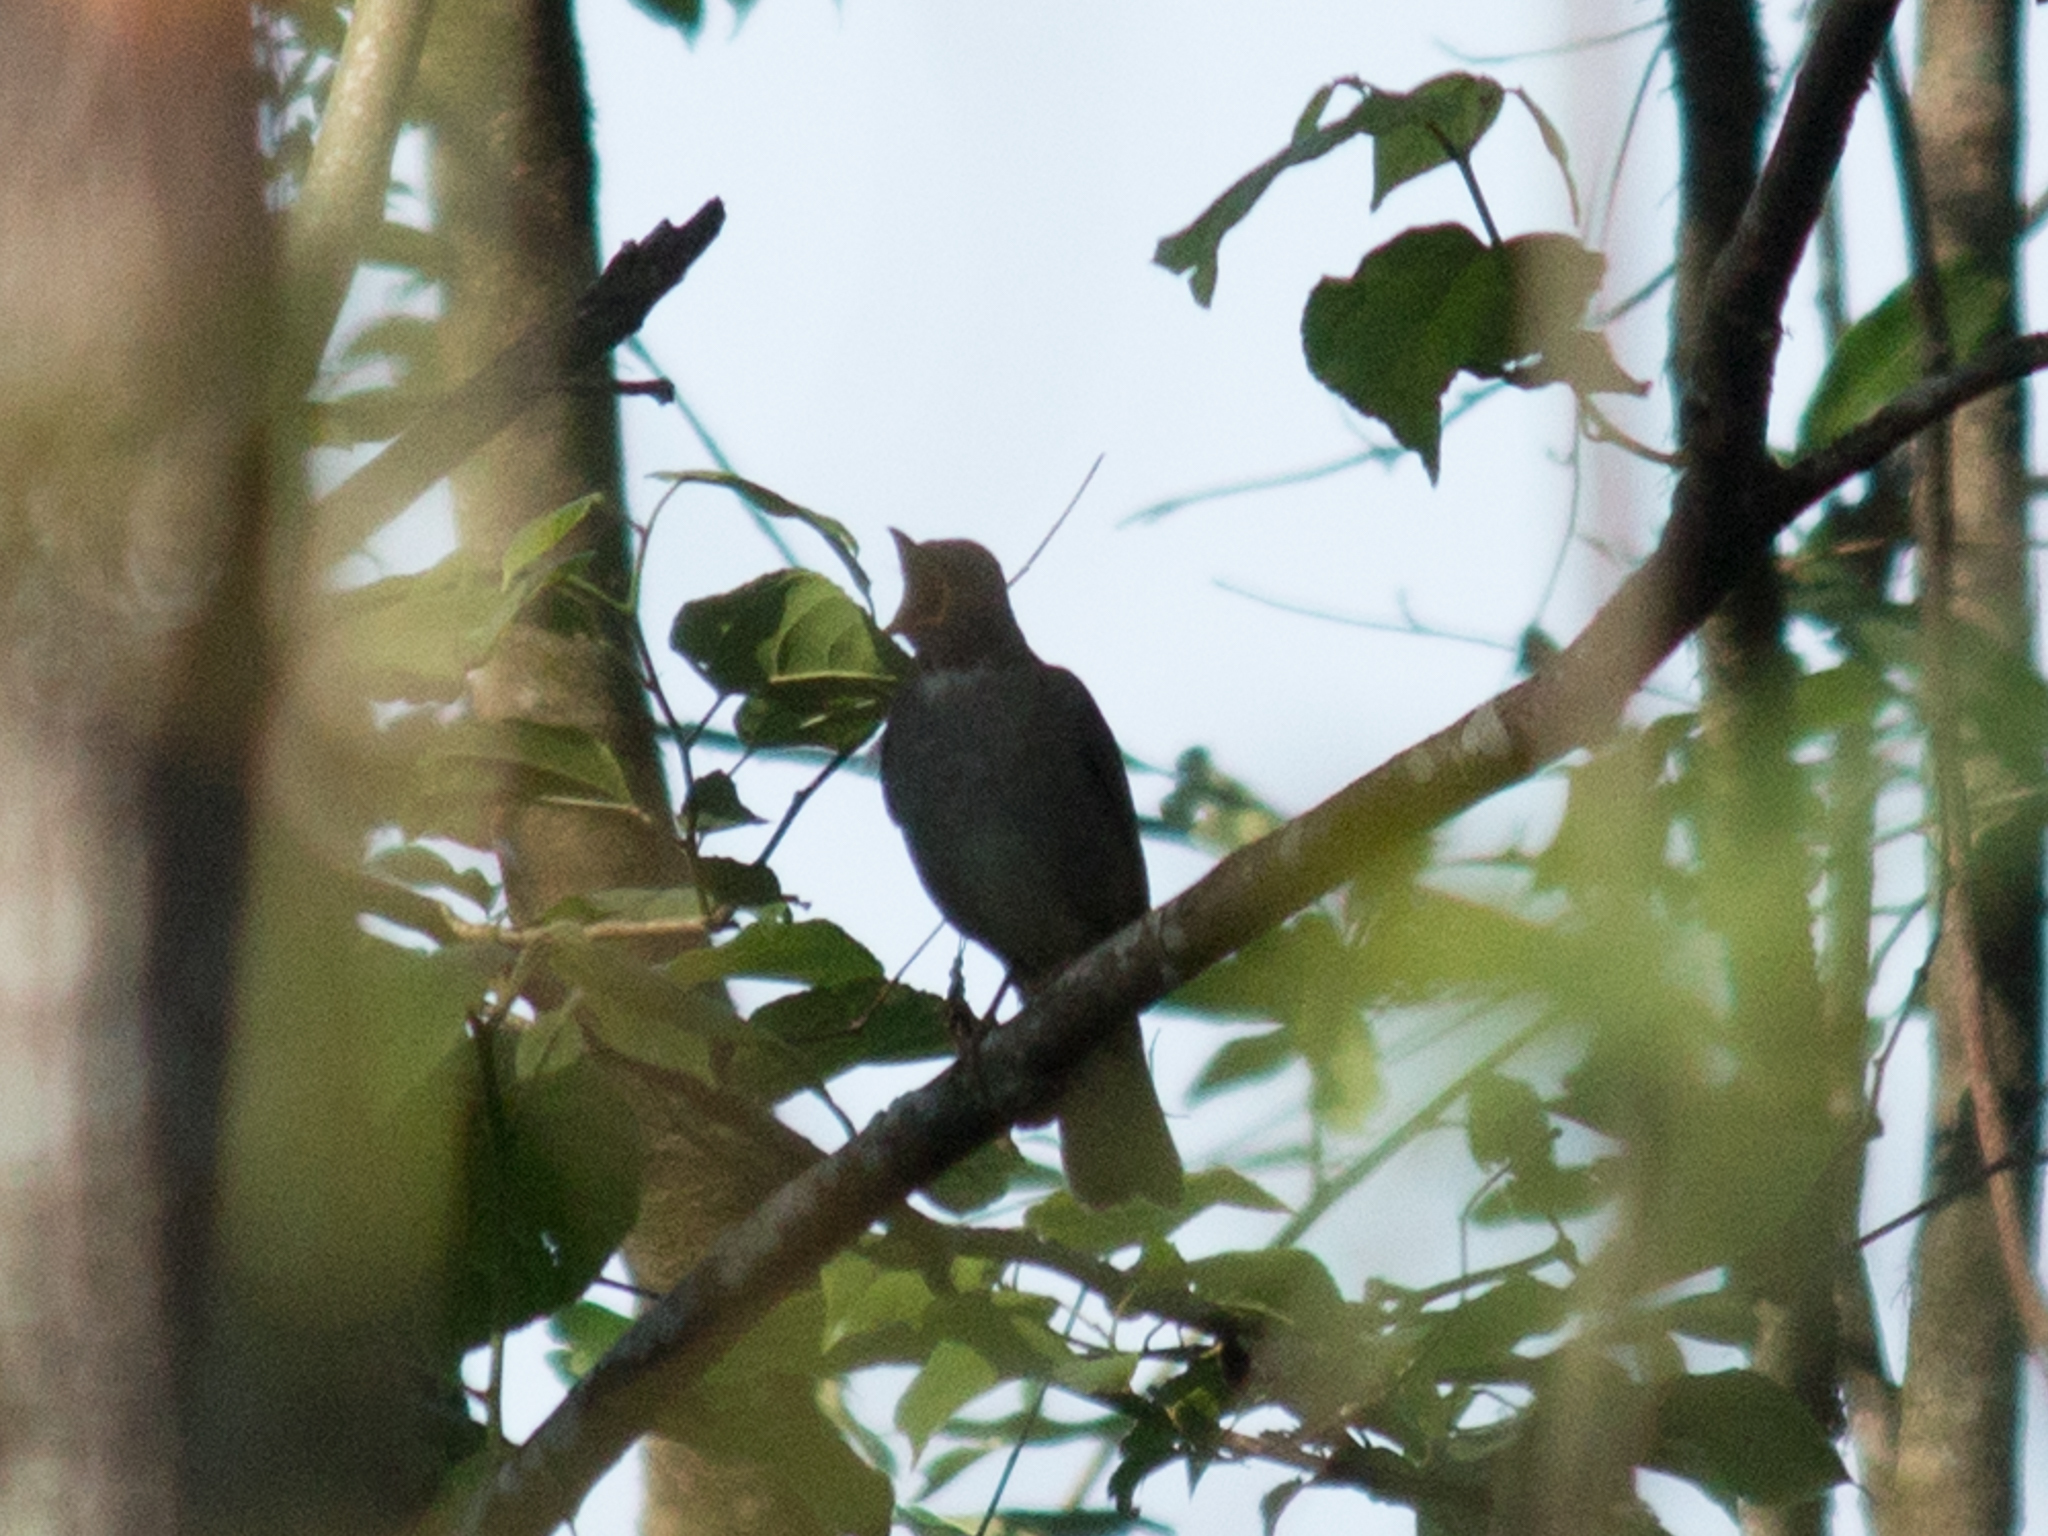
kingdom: Animalia
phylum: Chordata
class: Aves
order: Passeriformes
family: Turdidae
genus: Turdus
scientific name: Turdus subalaris
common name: Eastern slaty thrush
